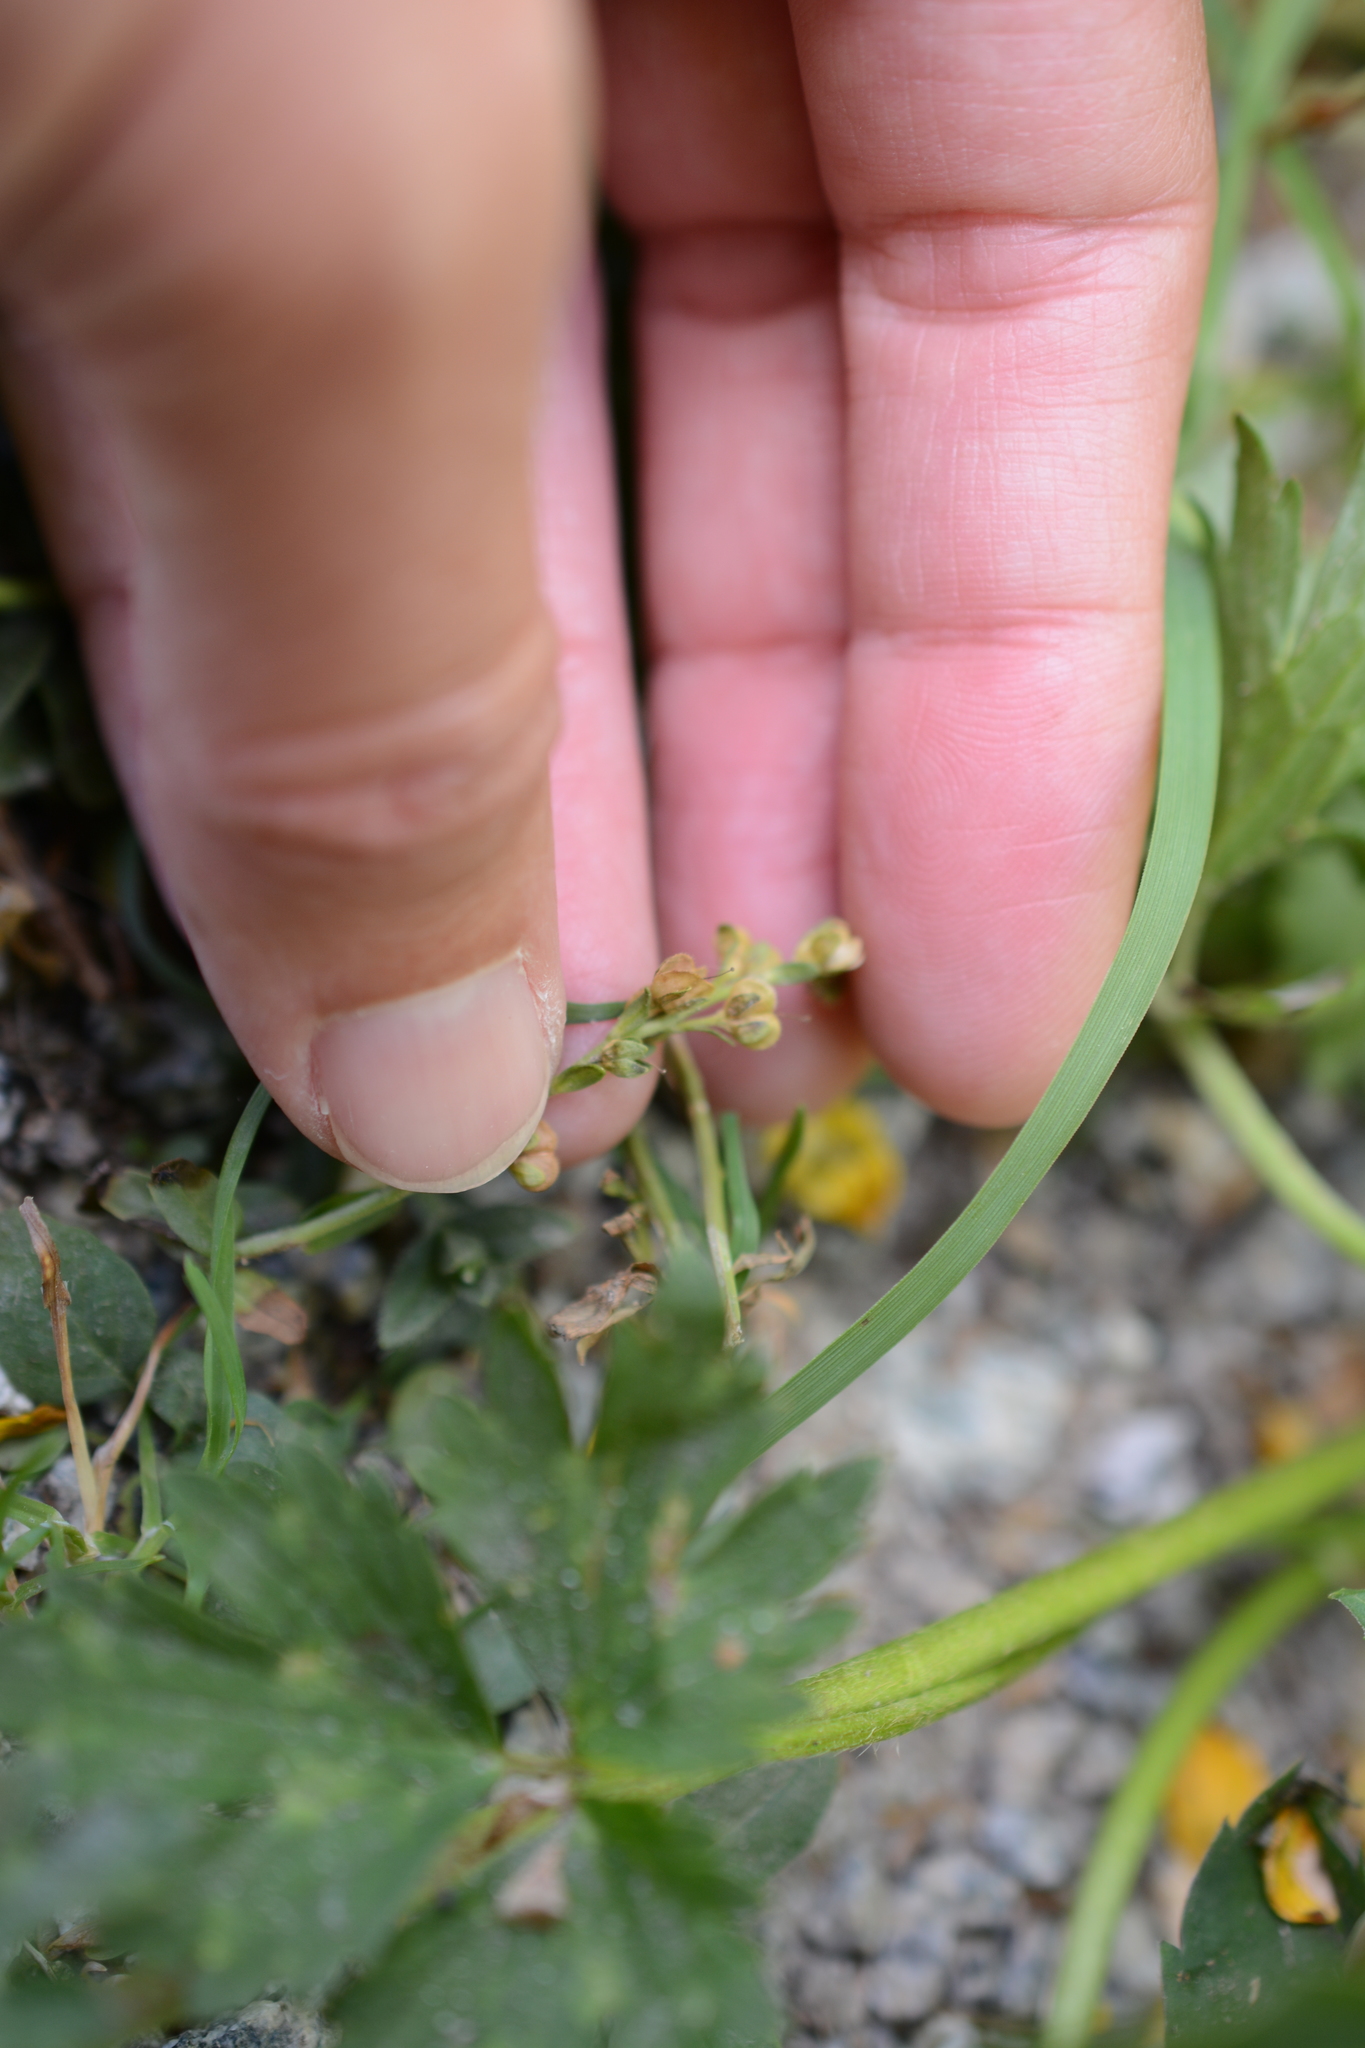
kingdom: Plantae
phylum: Tracheophyta
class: Magnoliopsida
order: Lamiales
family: Plantaginaceae
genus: Veronica
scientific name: Veronica serpyllifolia
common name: Thyme-leaved speedwell
